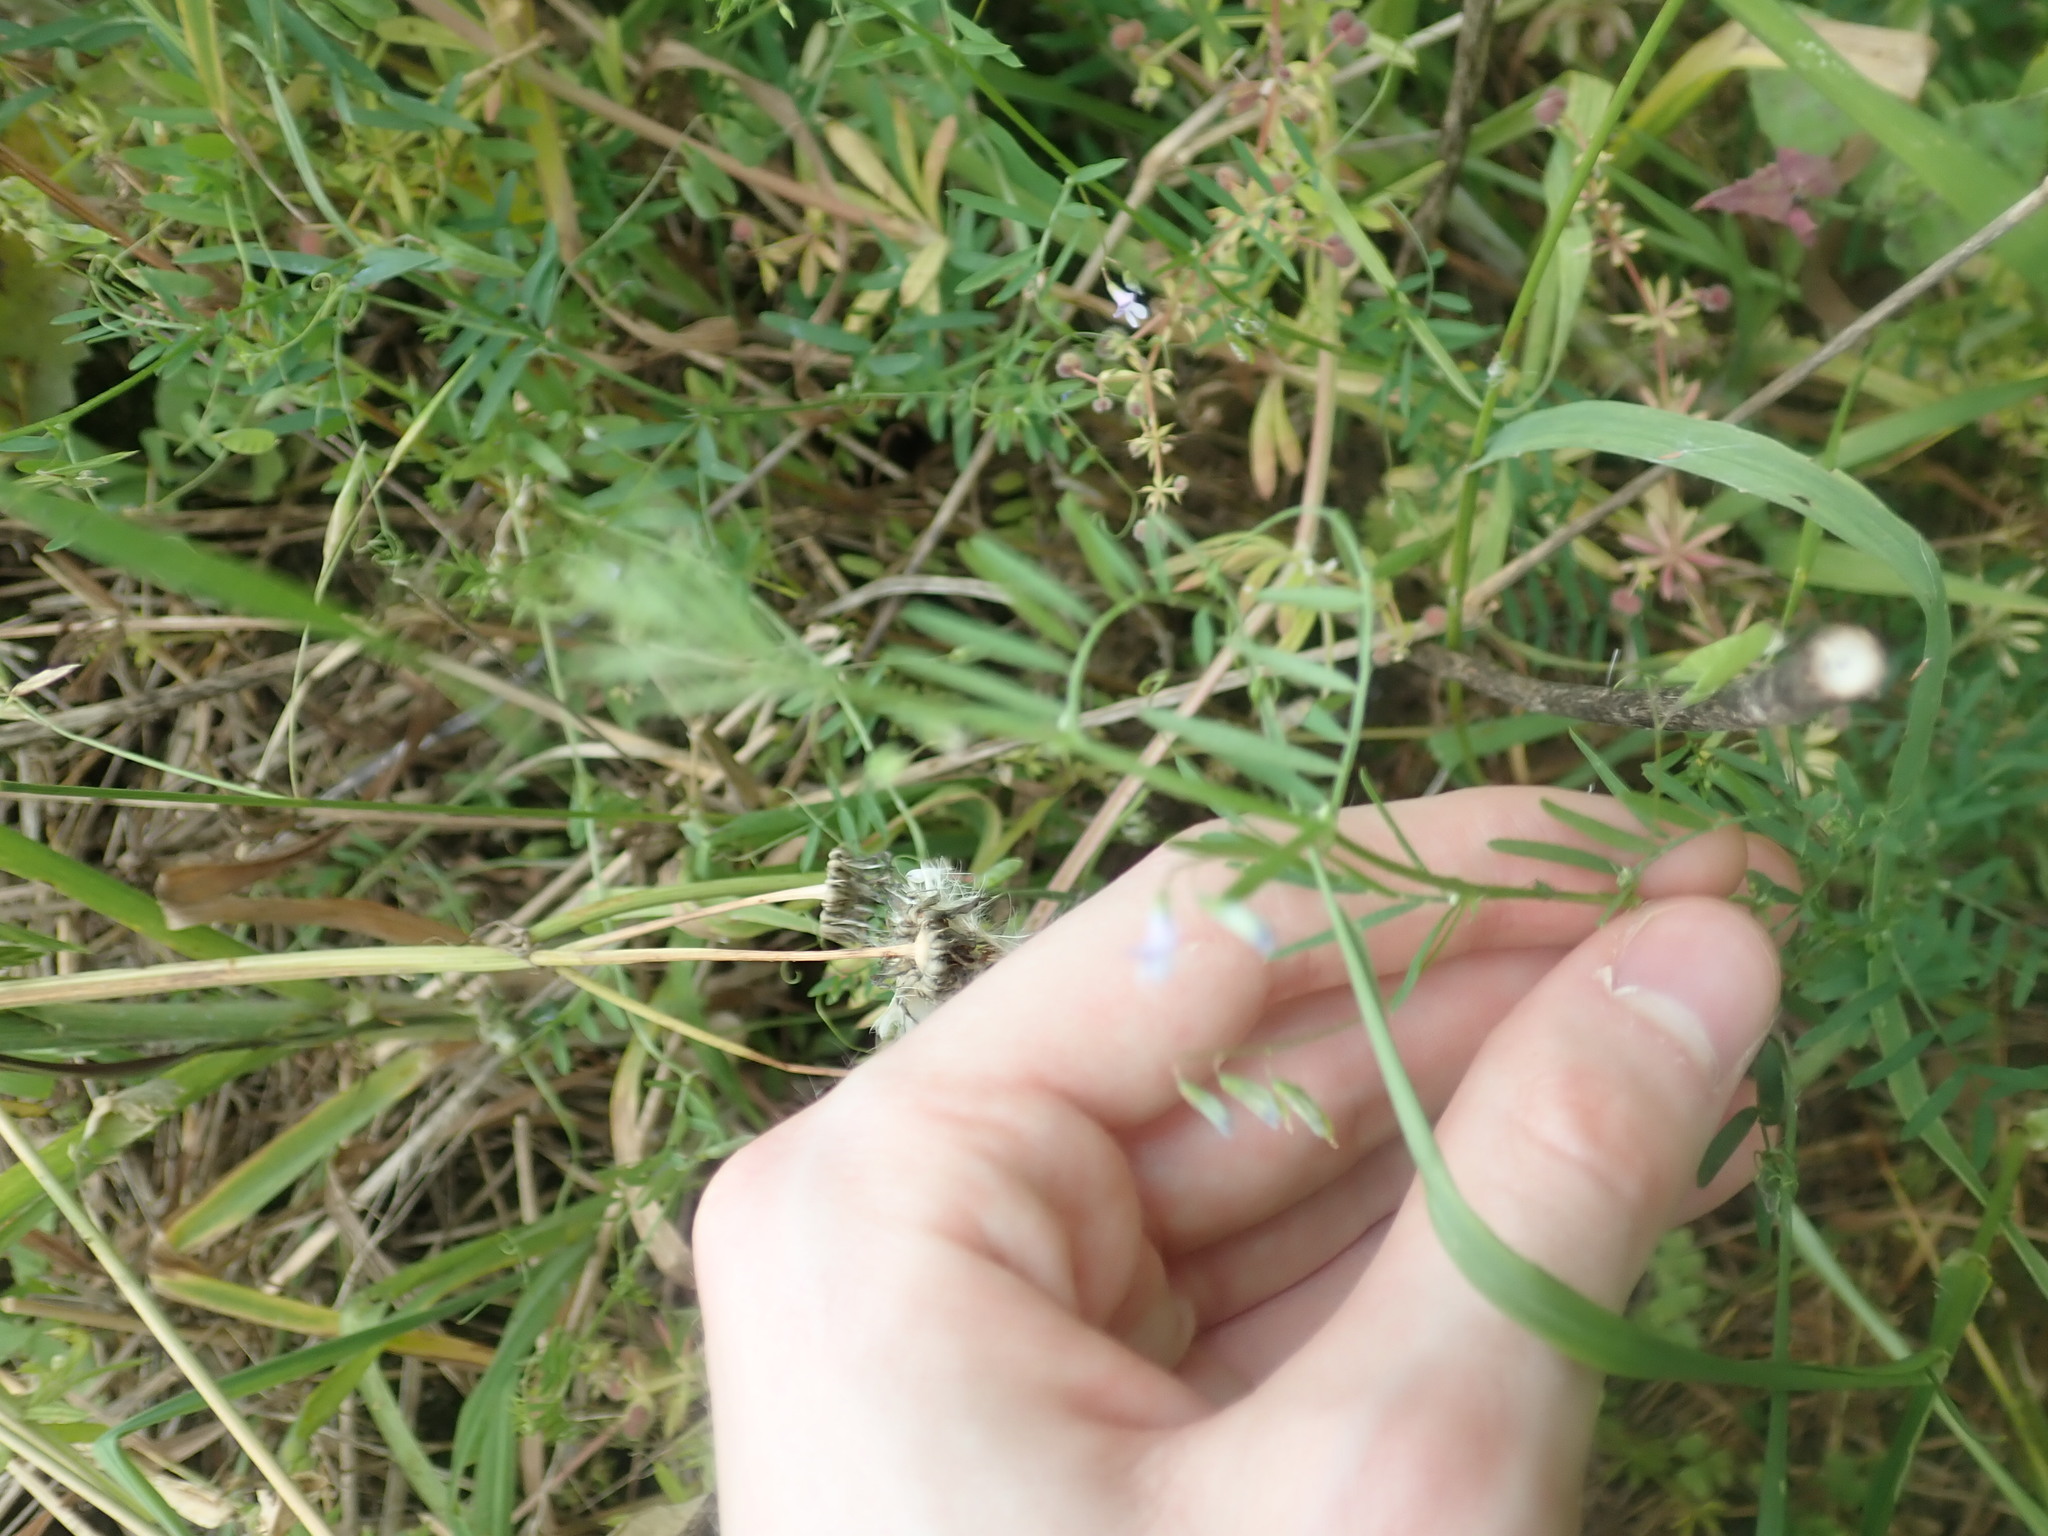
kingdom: Plantae
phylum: Tracheophyta
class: Magnoliopsida
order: Fabales
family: Fabaceae
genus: Vicia
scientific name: Vicia tetrasperma
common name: Smooth tare
